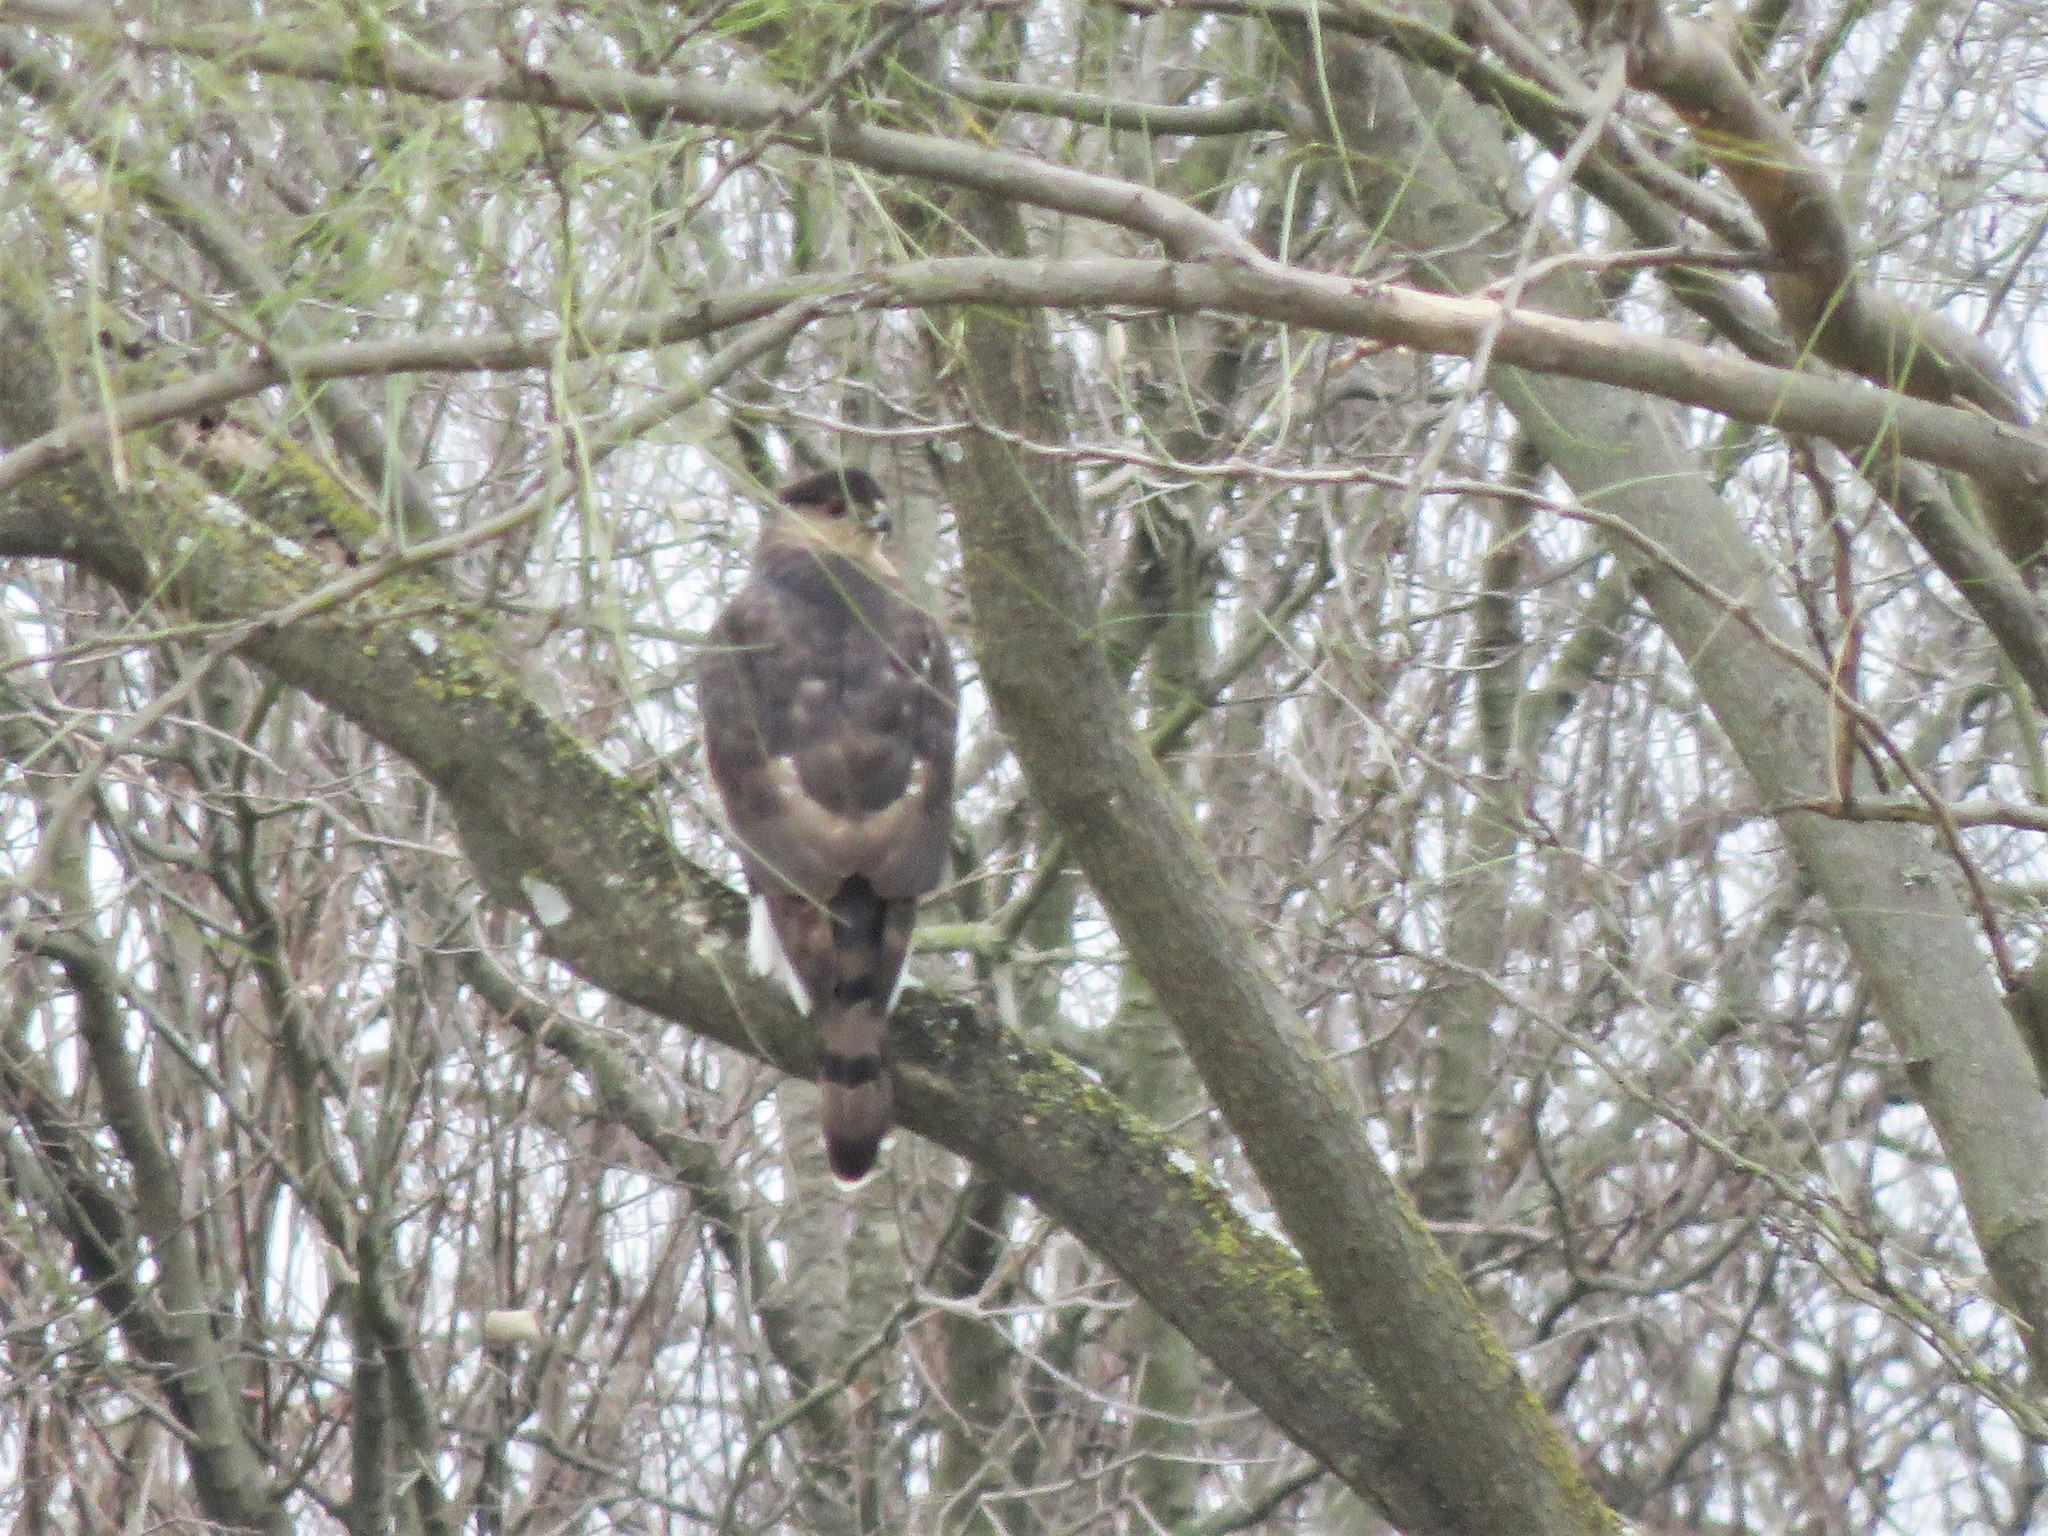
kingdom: Animalia
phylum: Chordata
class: Aves
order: Accipitriformes
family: Accipitridae
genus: Accipiter
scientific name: Accipiter cooperii
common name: Cooper's hawk
